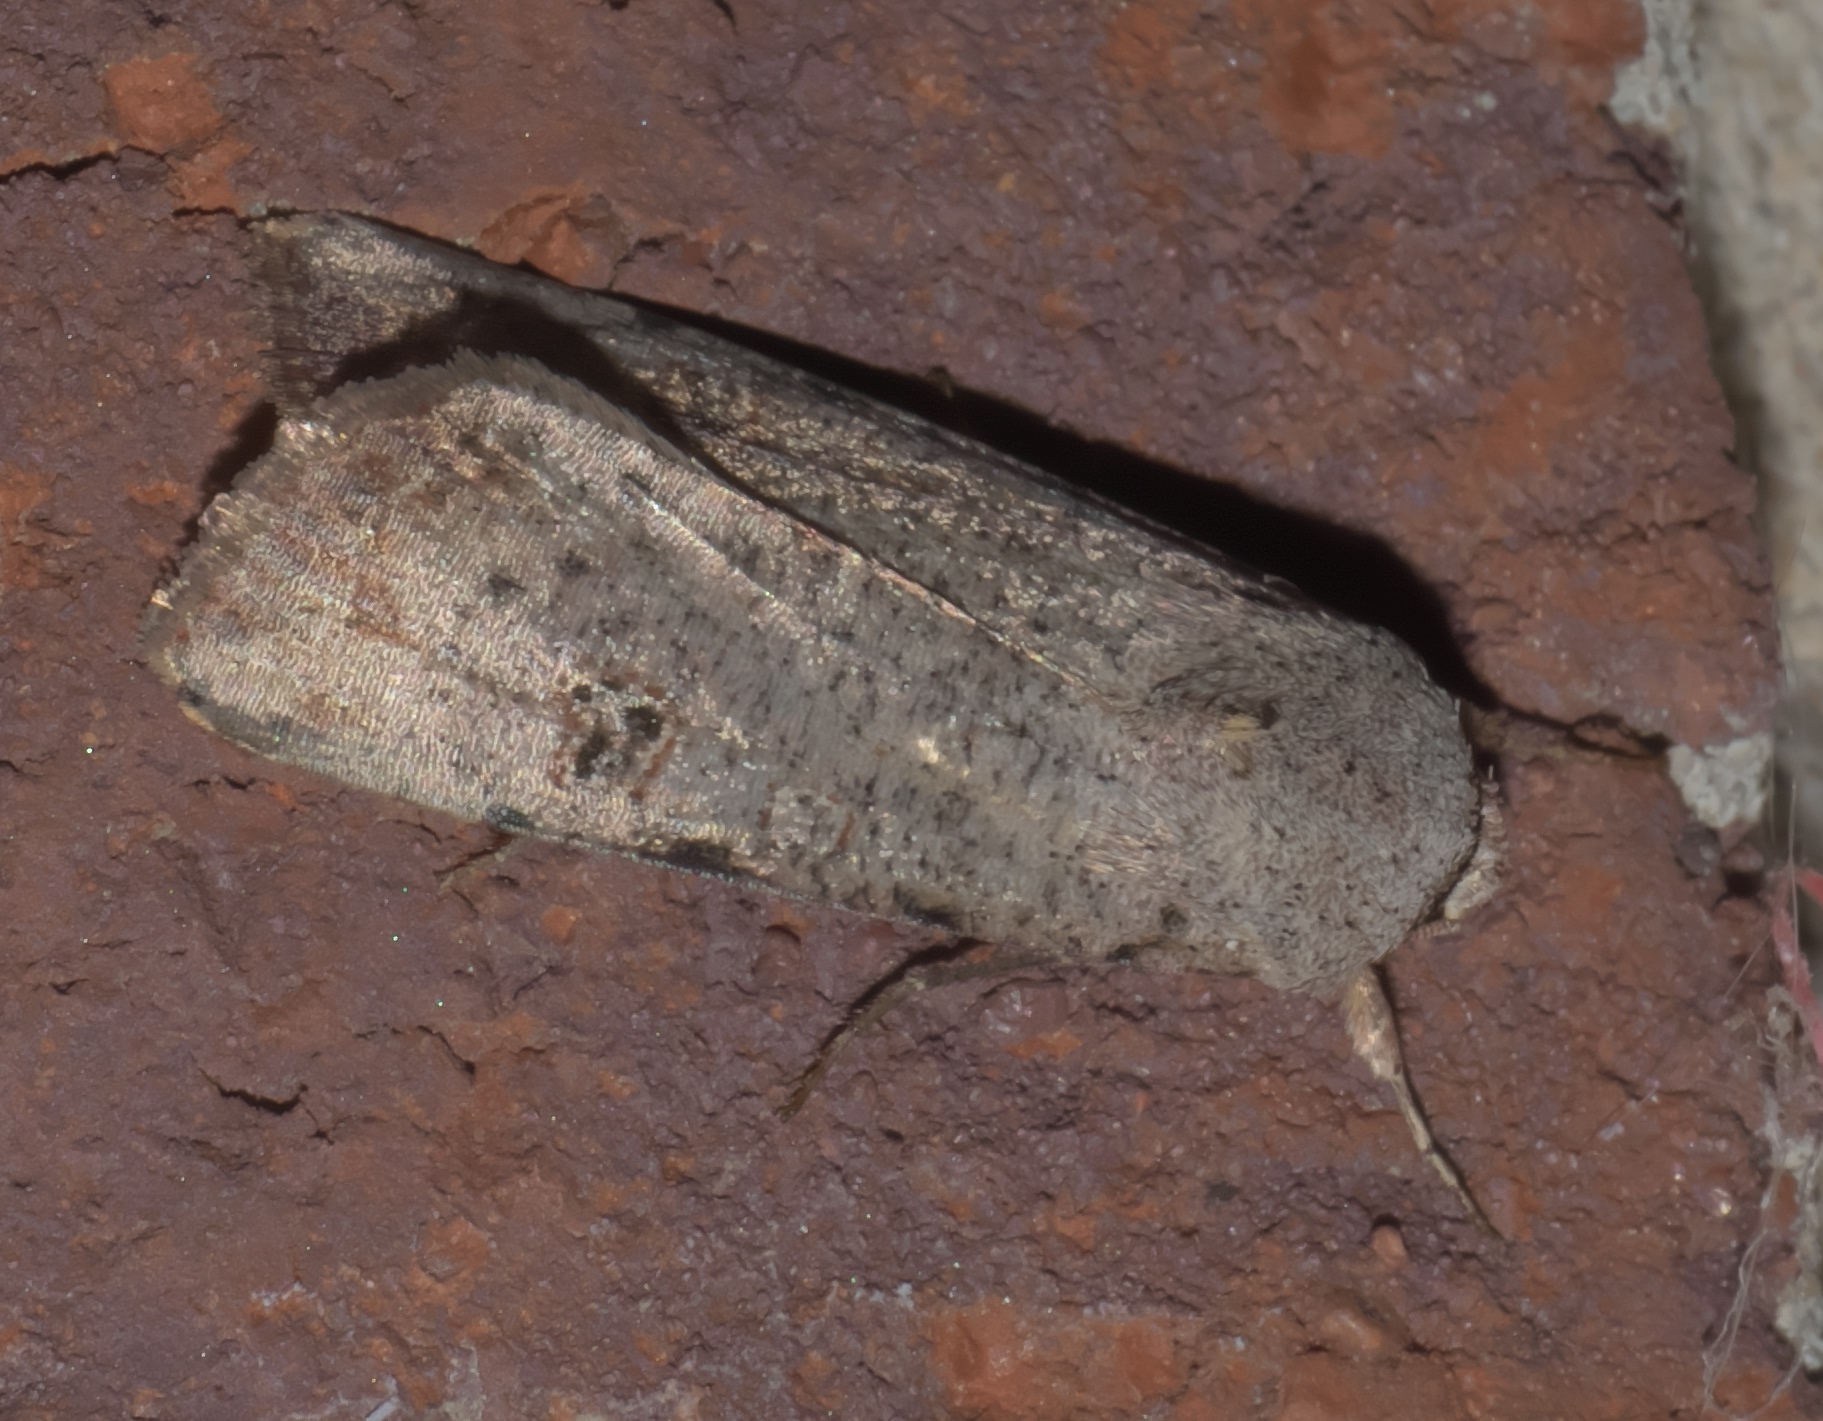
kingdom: Animalia
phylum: Arthropoda
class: Insecta
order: Lepidoptera
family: Noctuidae
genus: Anicla
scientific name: Anicla infecta
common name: Green cutworm
